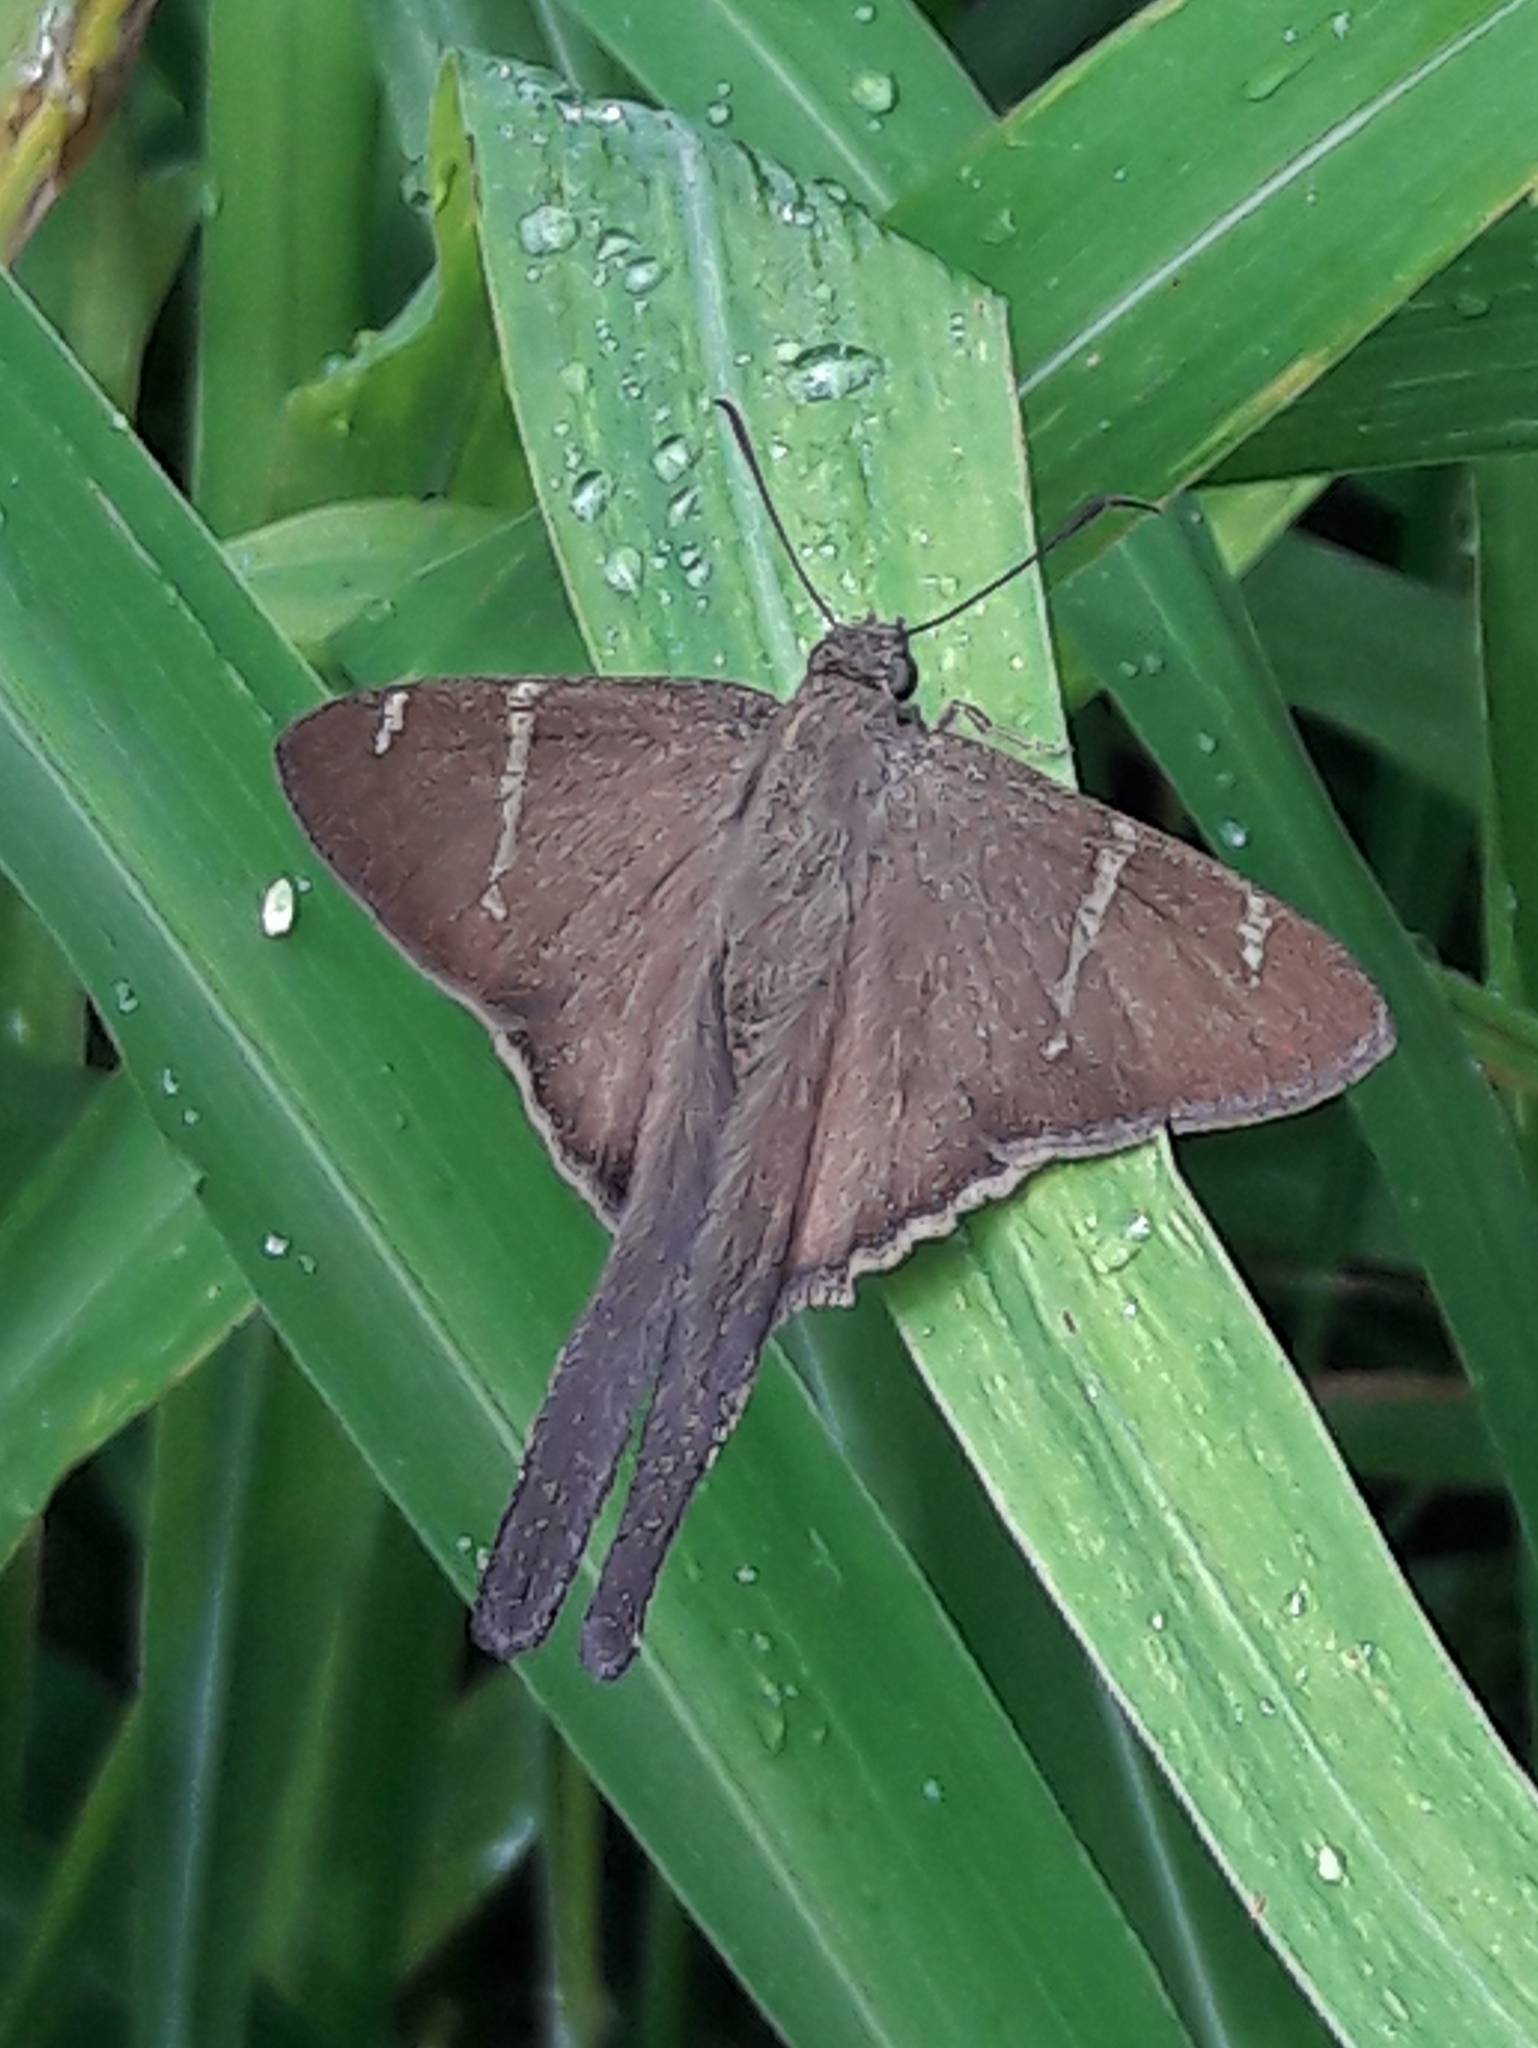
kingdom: Animalia
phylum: Arthropoda
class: Insecta
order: Lepidoptera
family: Hesperiidae
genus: Urbanus
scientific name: Urbanus teleus
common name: Teleus longtail
